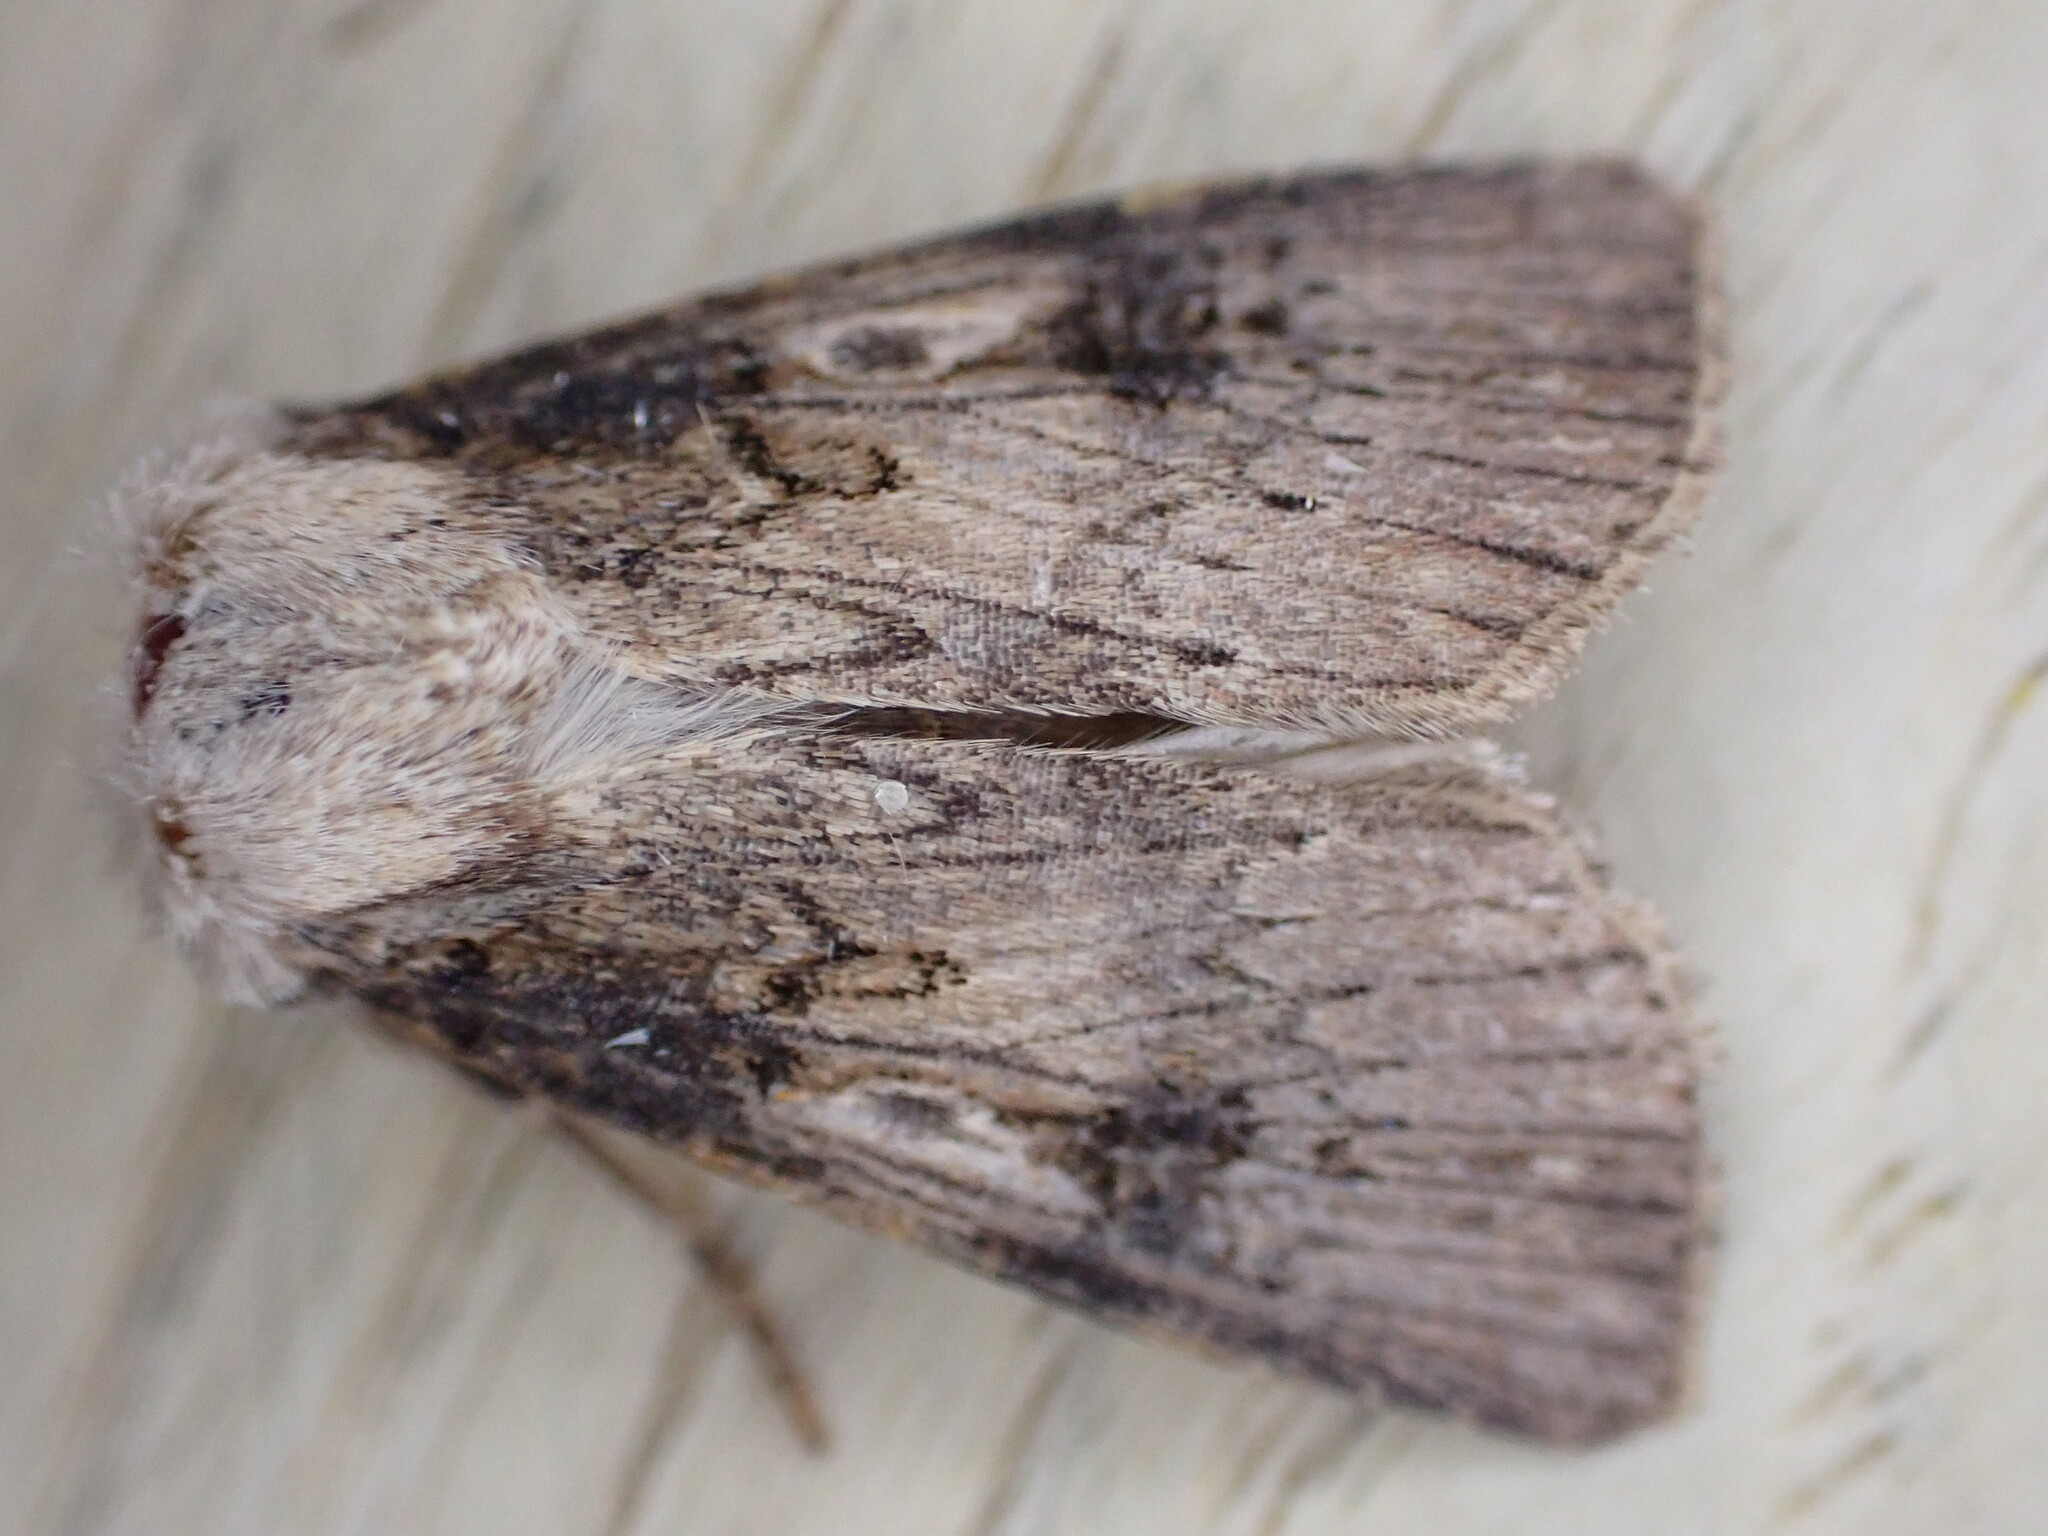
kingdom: Animalia
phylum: Arthropoda
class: Insecta
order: Lepidoptera
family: Noctuidae
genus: Agrotis
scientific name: Agrotis puta
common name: Shuttle-shaped dart
